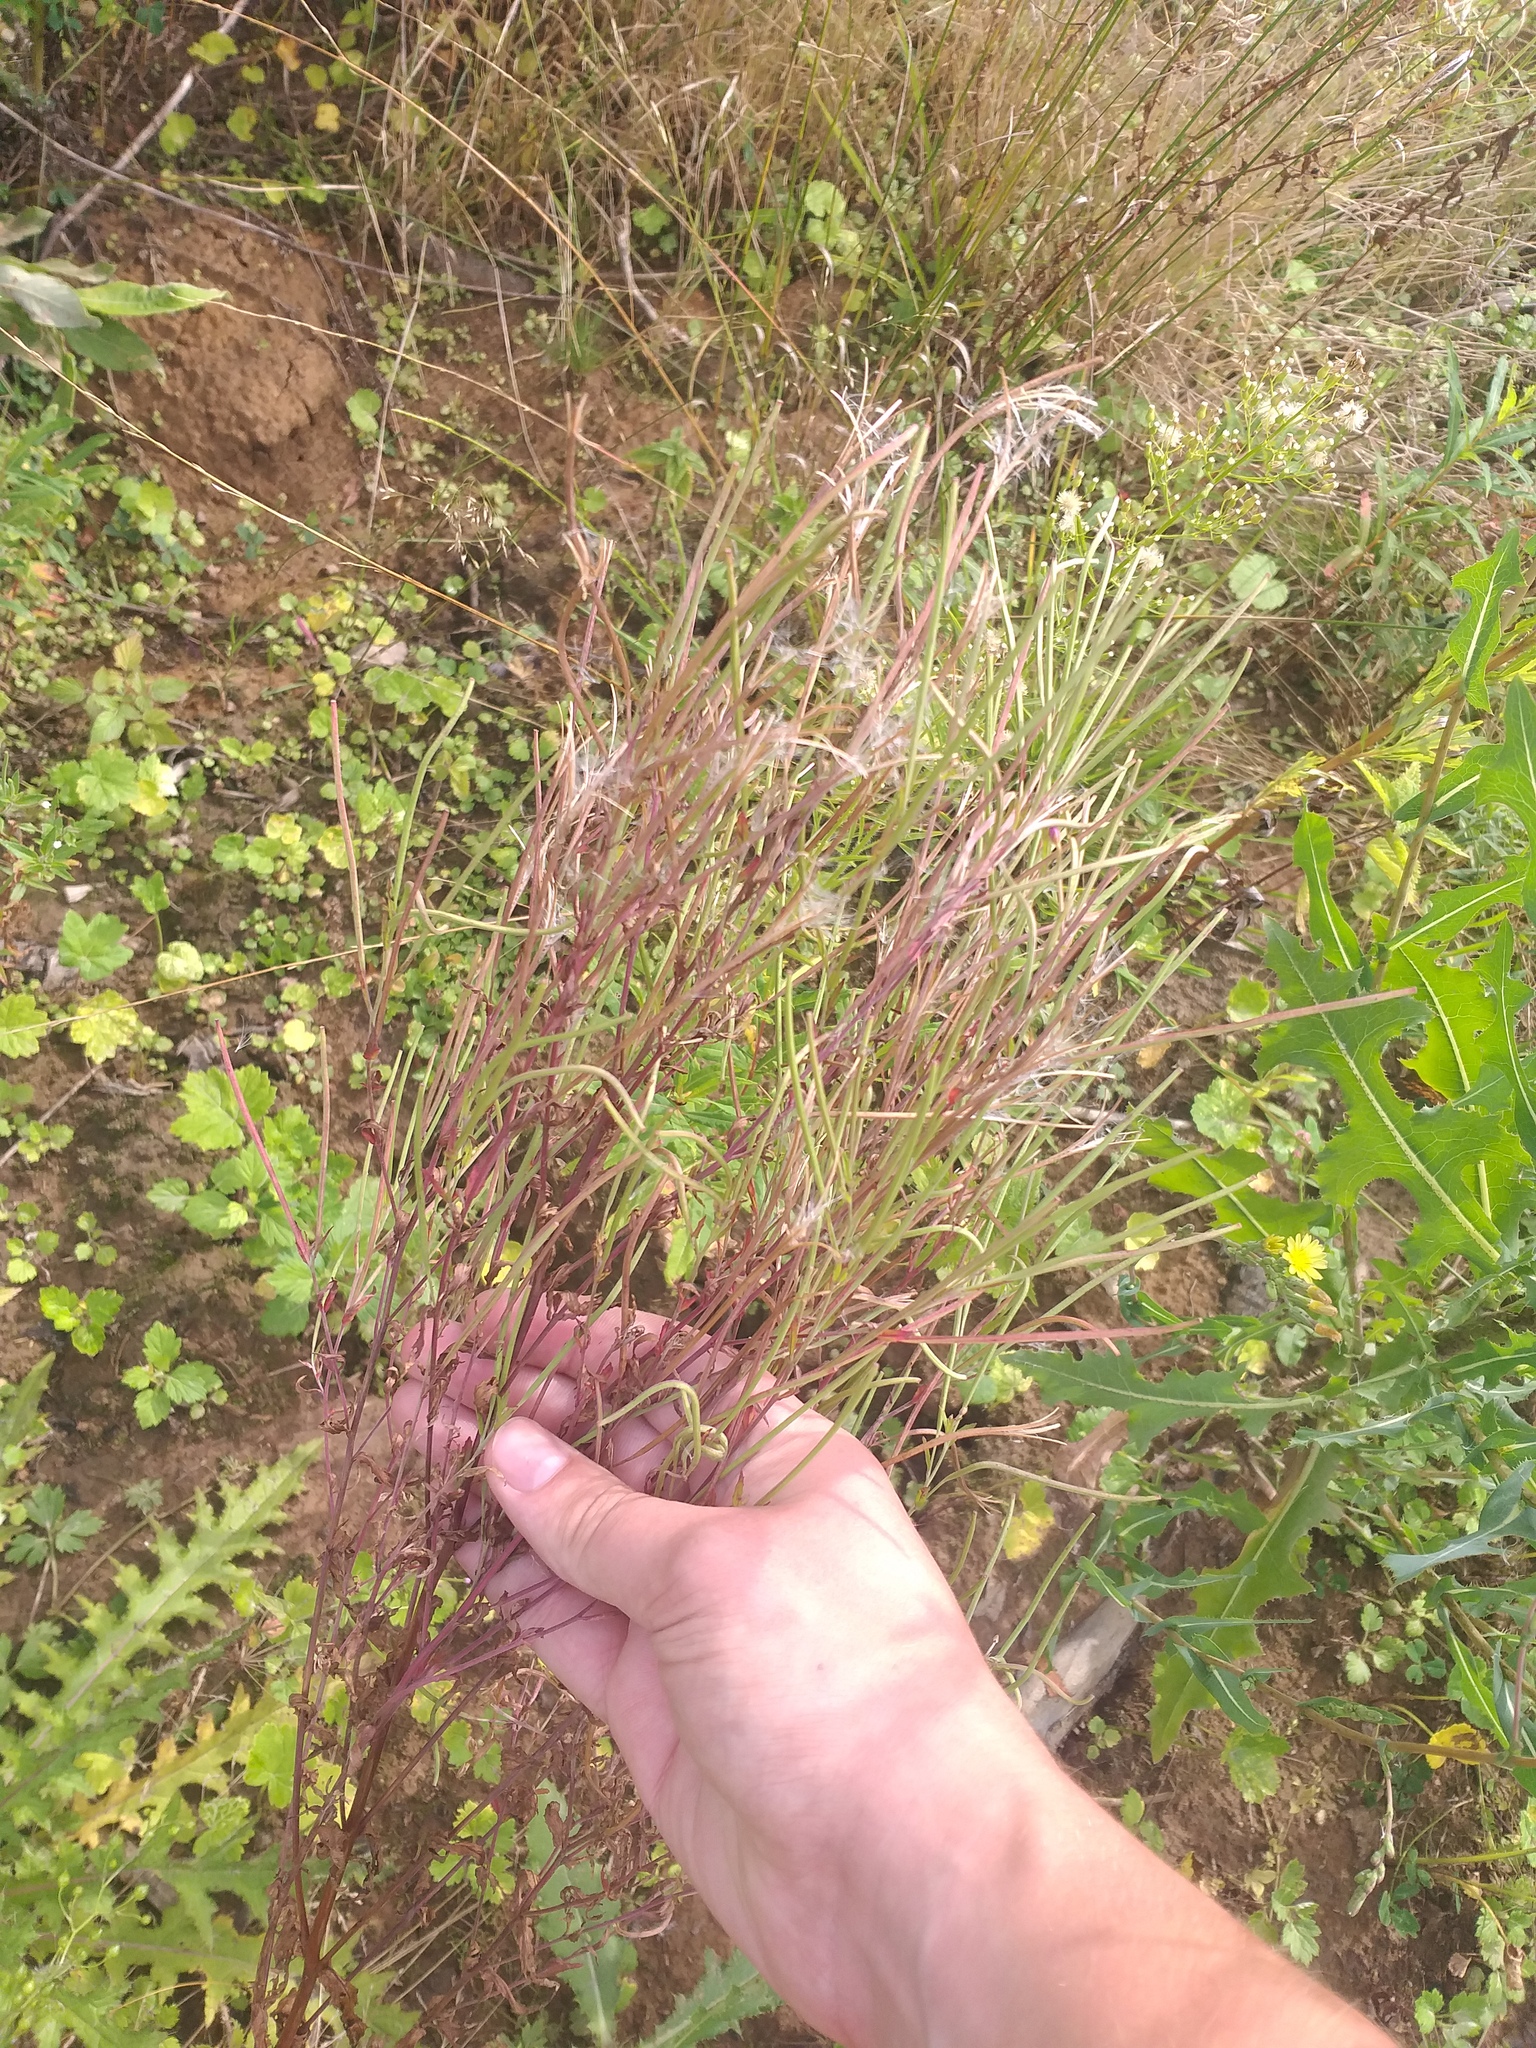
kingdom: Plantae
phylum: Tracheophyta
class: Magnoliopsida
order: Myrtales
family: Onagraceae
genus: Epilobium
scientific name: Epilobium tetragonum
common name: Square-stemmed willowherb
